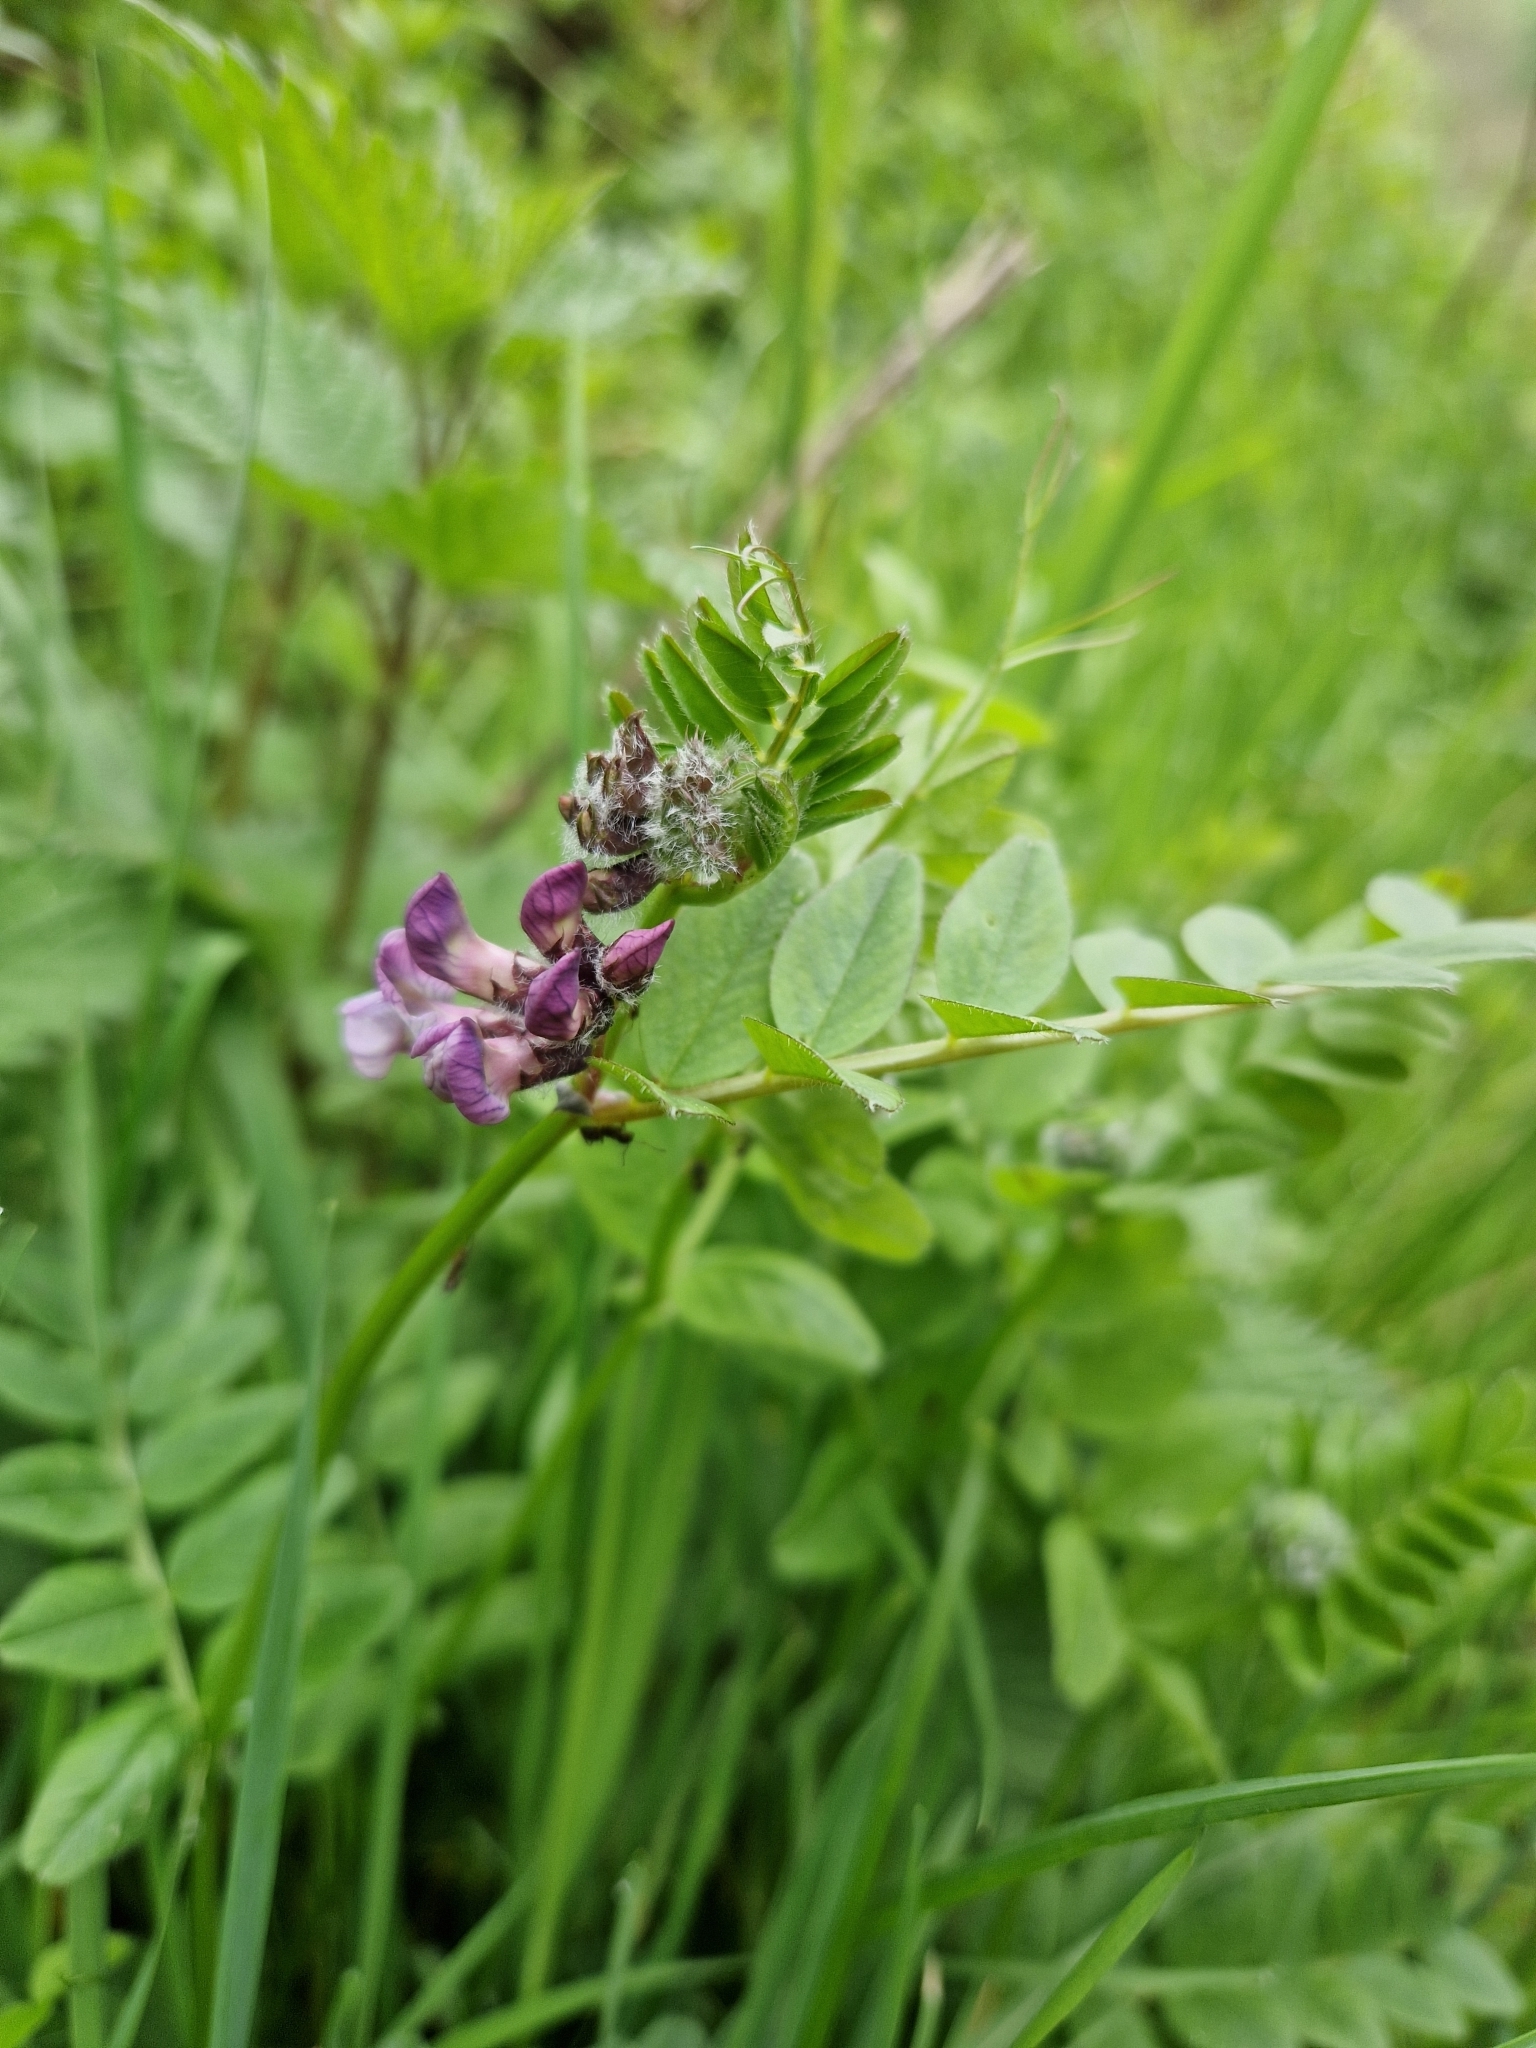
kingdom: Plantae
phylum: Tracheophyta
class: Magnoliopsida
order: Fabales
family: Fabaceae
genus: Vicia
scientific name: Vicia sepium
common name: Bush vetch
